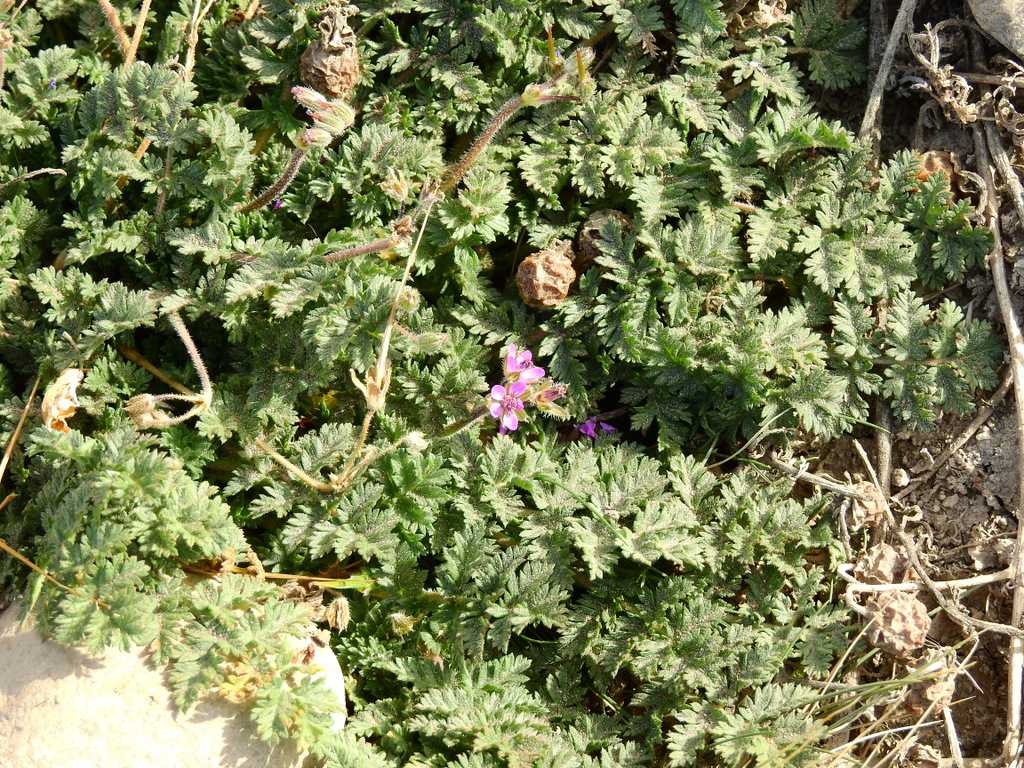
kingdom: Plantae
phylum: Tracheophyta
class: Magnoliopsida
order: Geraniales
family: Geraniaceae
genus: Erodium
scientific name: Erodium cicutarium
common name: Common stork's-bill
